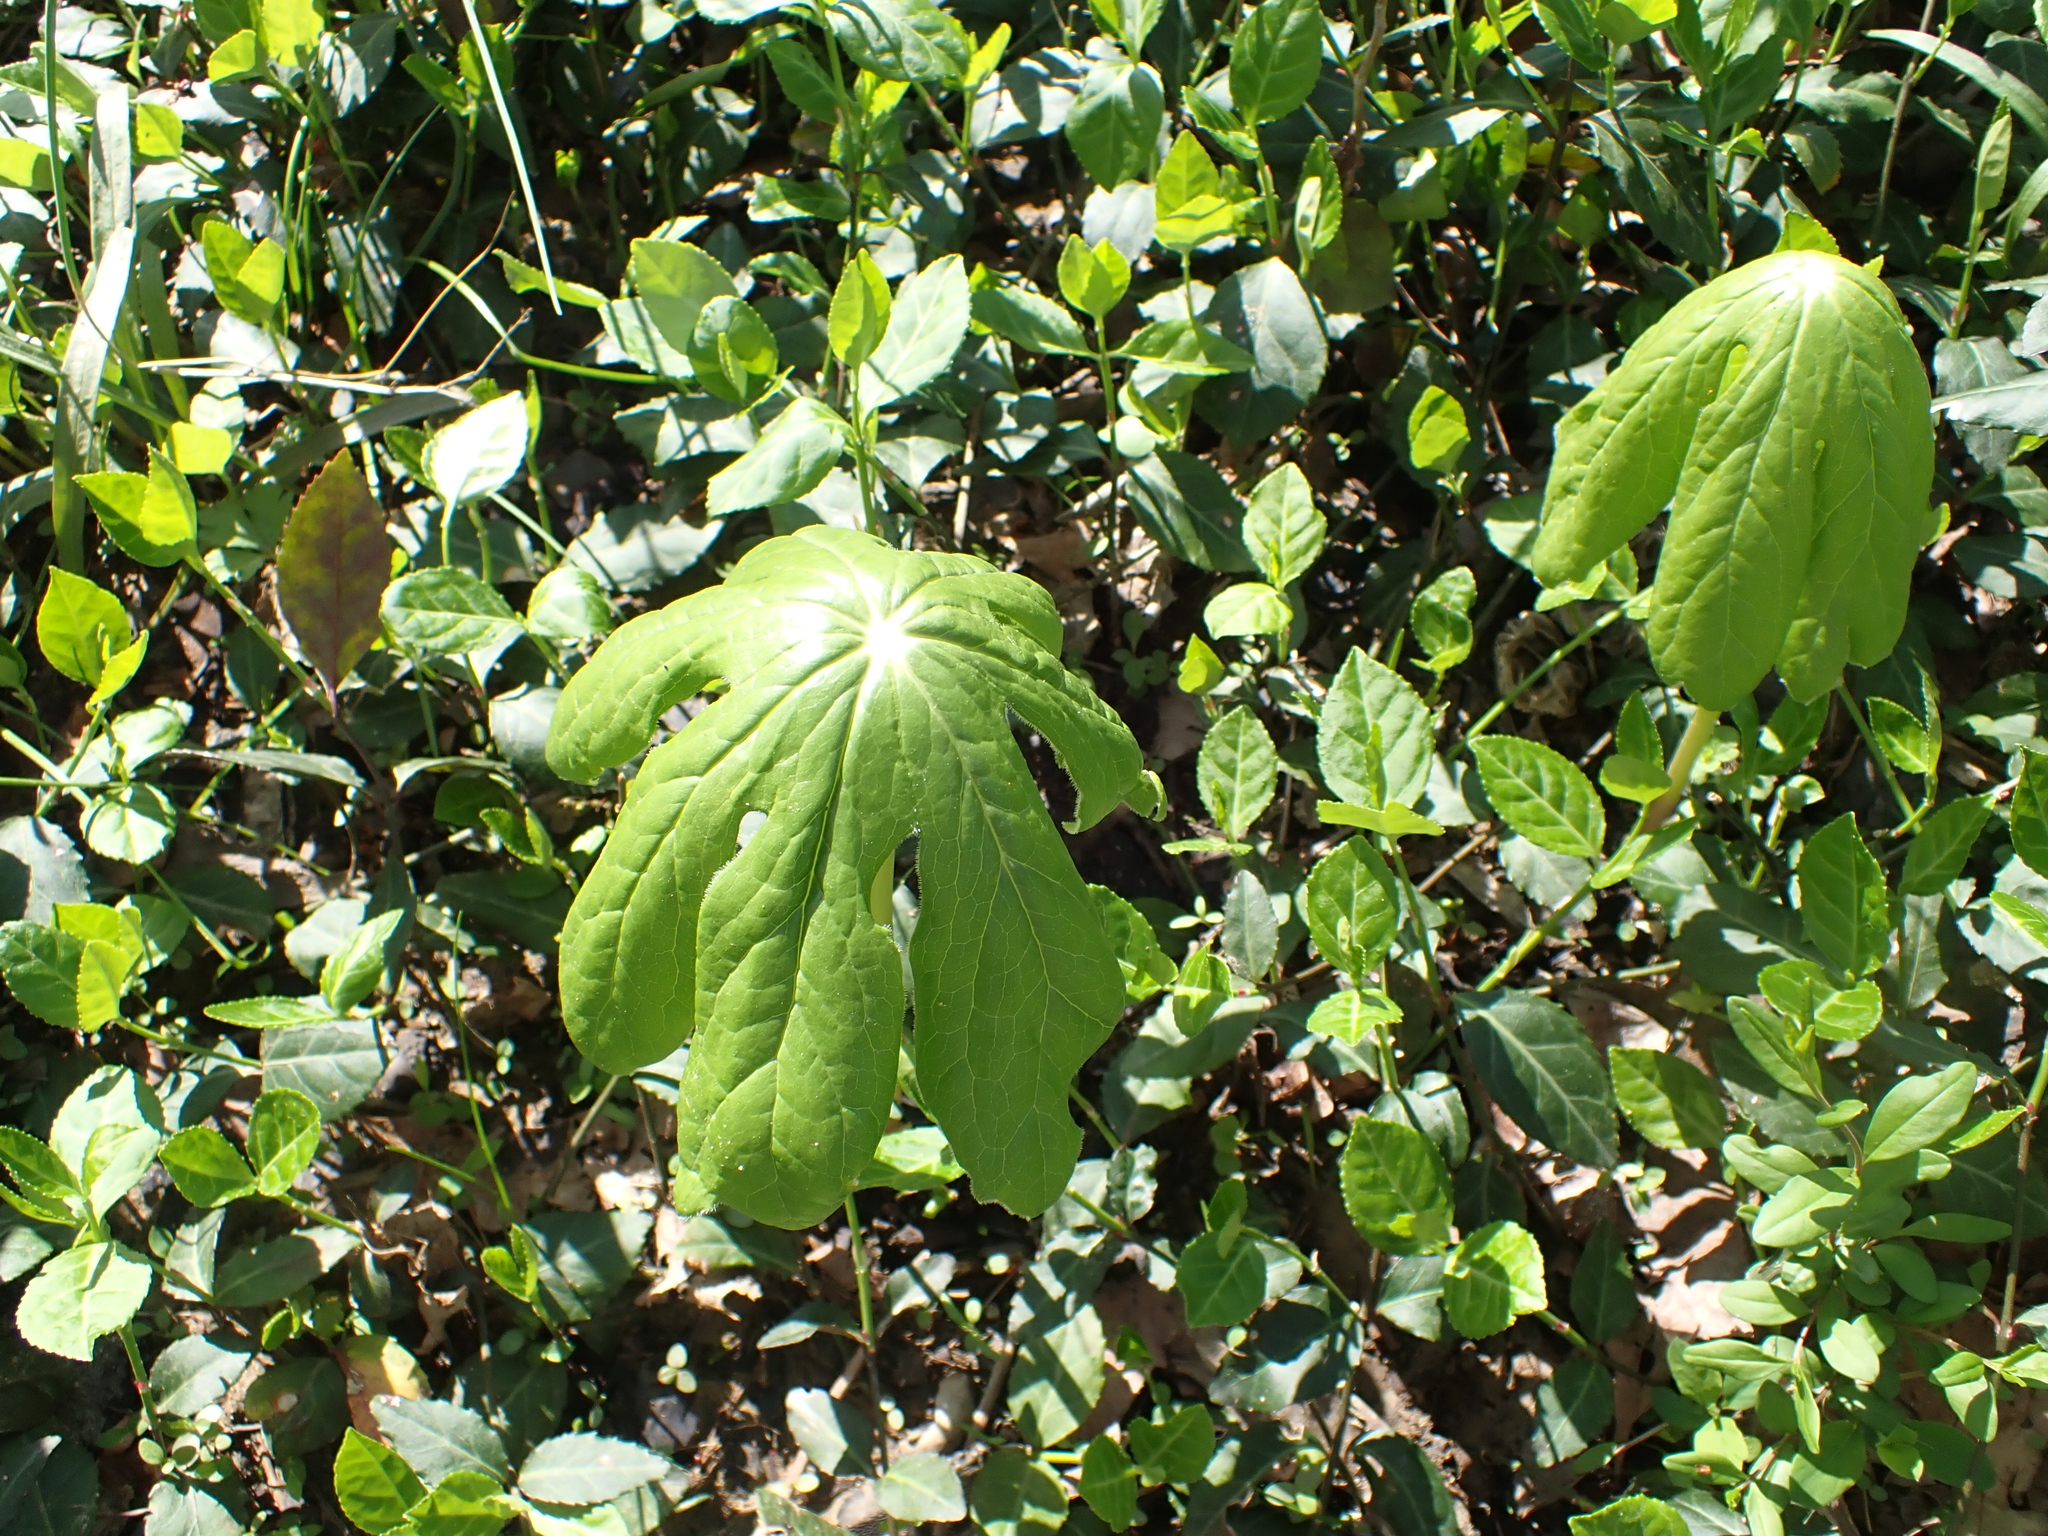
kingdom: Plantae
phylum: Tracheophyta
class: Magnoliopsida
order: Ranunculales
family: Berberidaceae
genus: Podophyllum
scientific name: Podophyllum peltatum
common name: Wild mandrake
